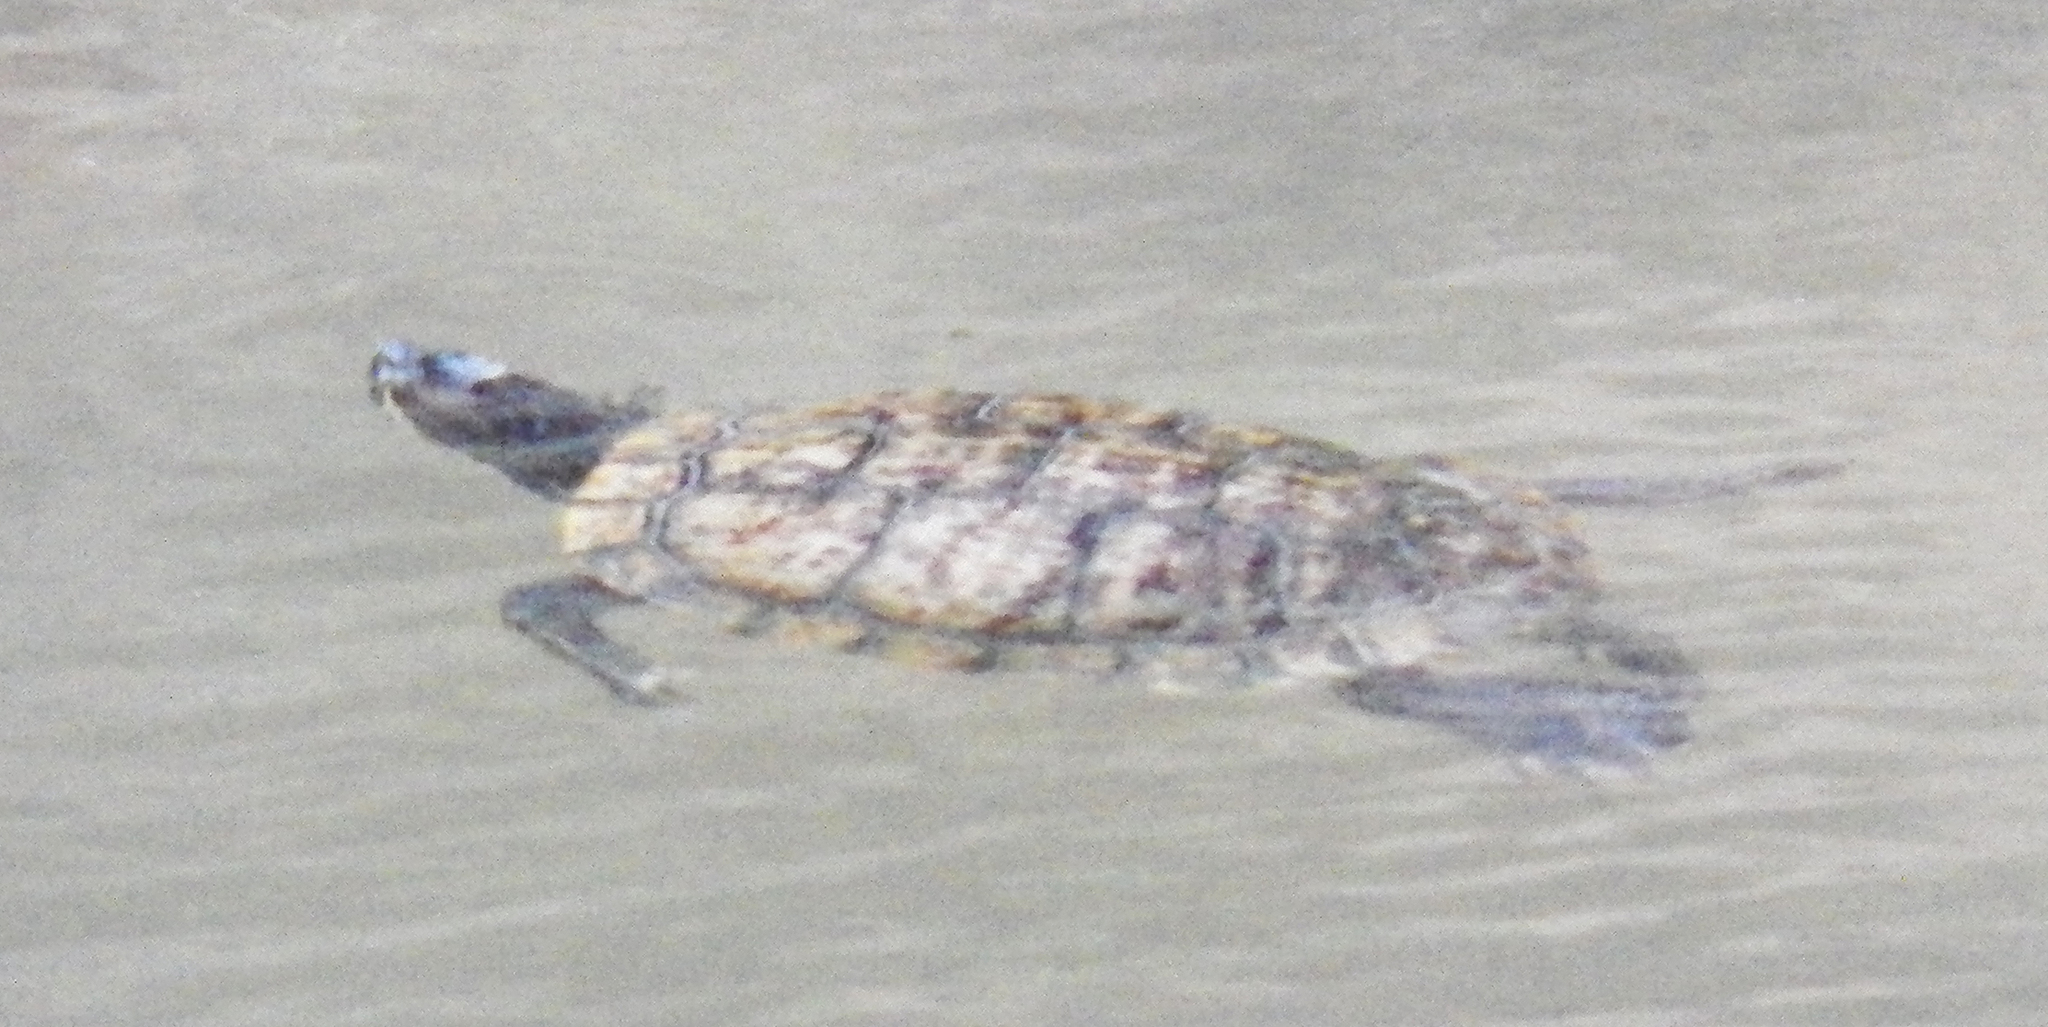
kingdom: Animalia
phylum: Chordata
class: Testudines
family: Emydidae
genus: Trachemys
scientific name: Trachemys scripta
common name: Slider
